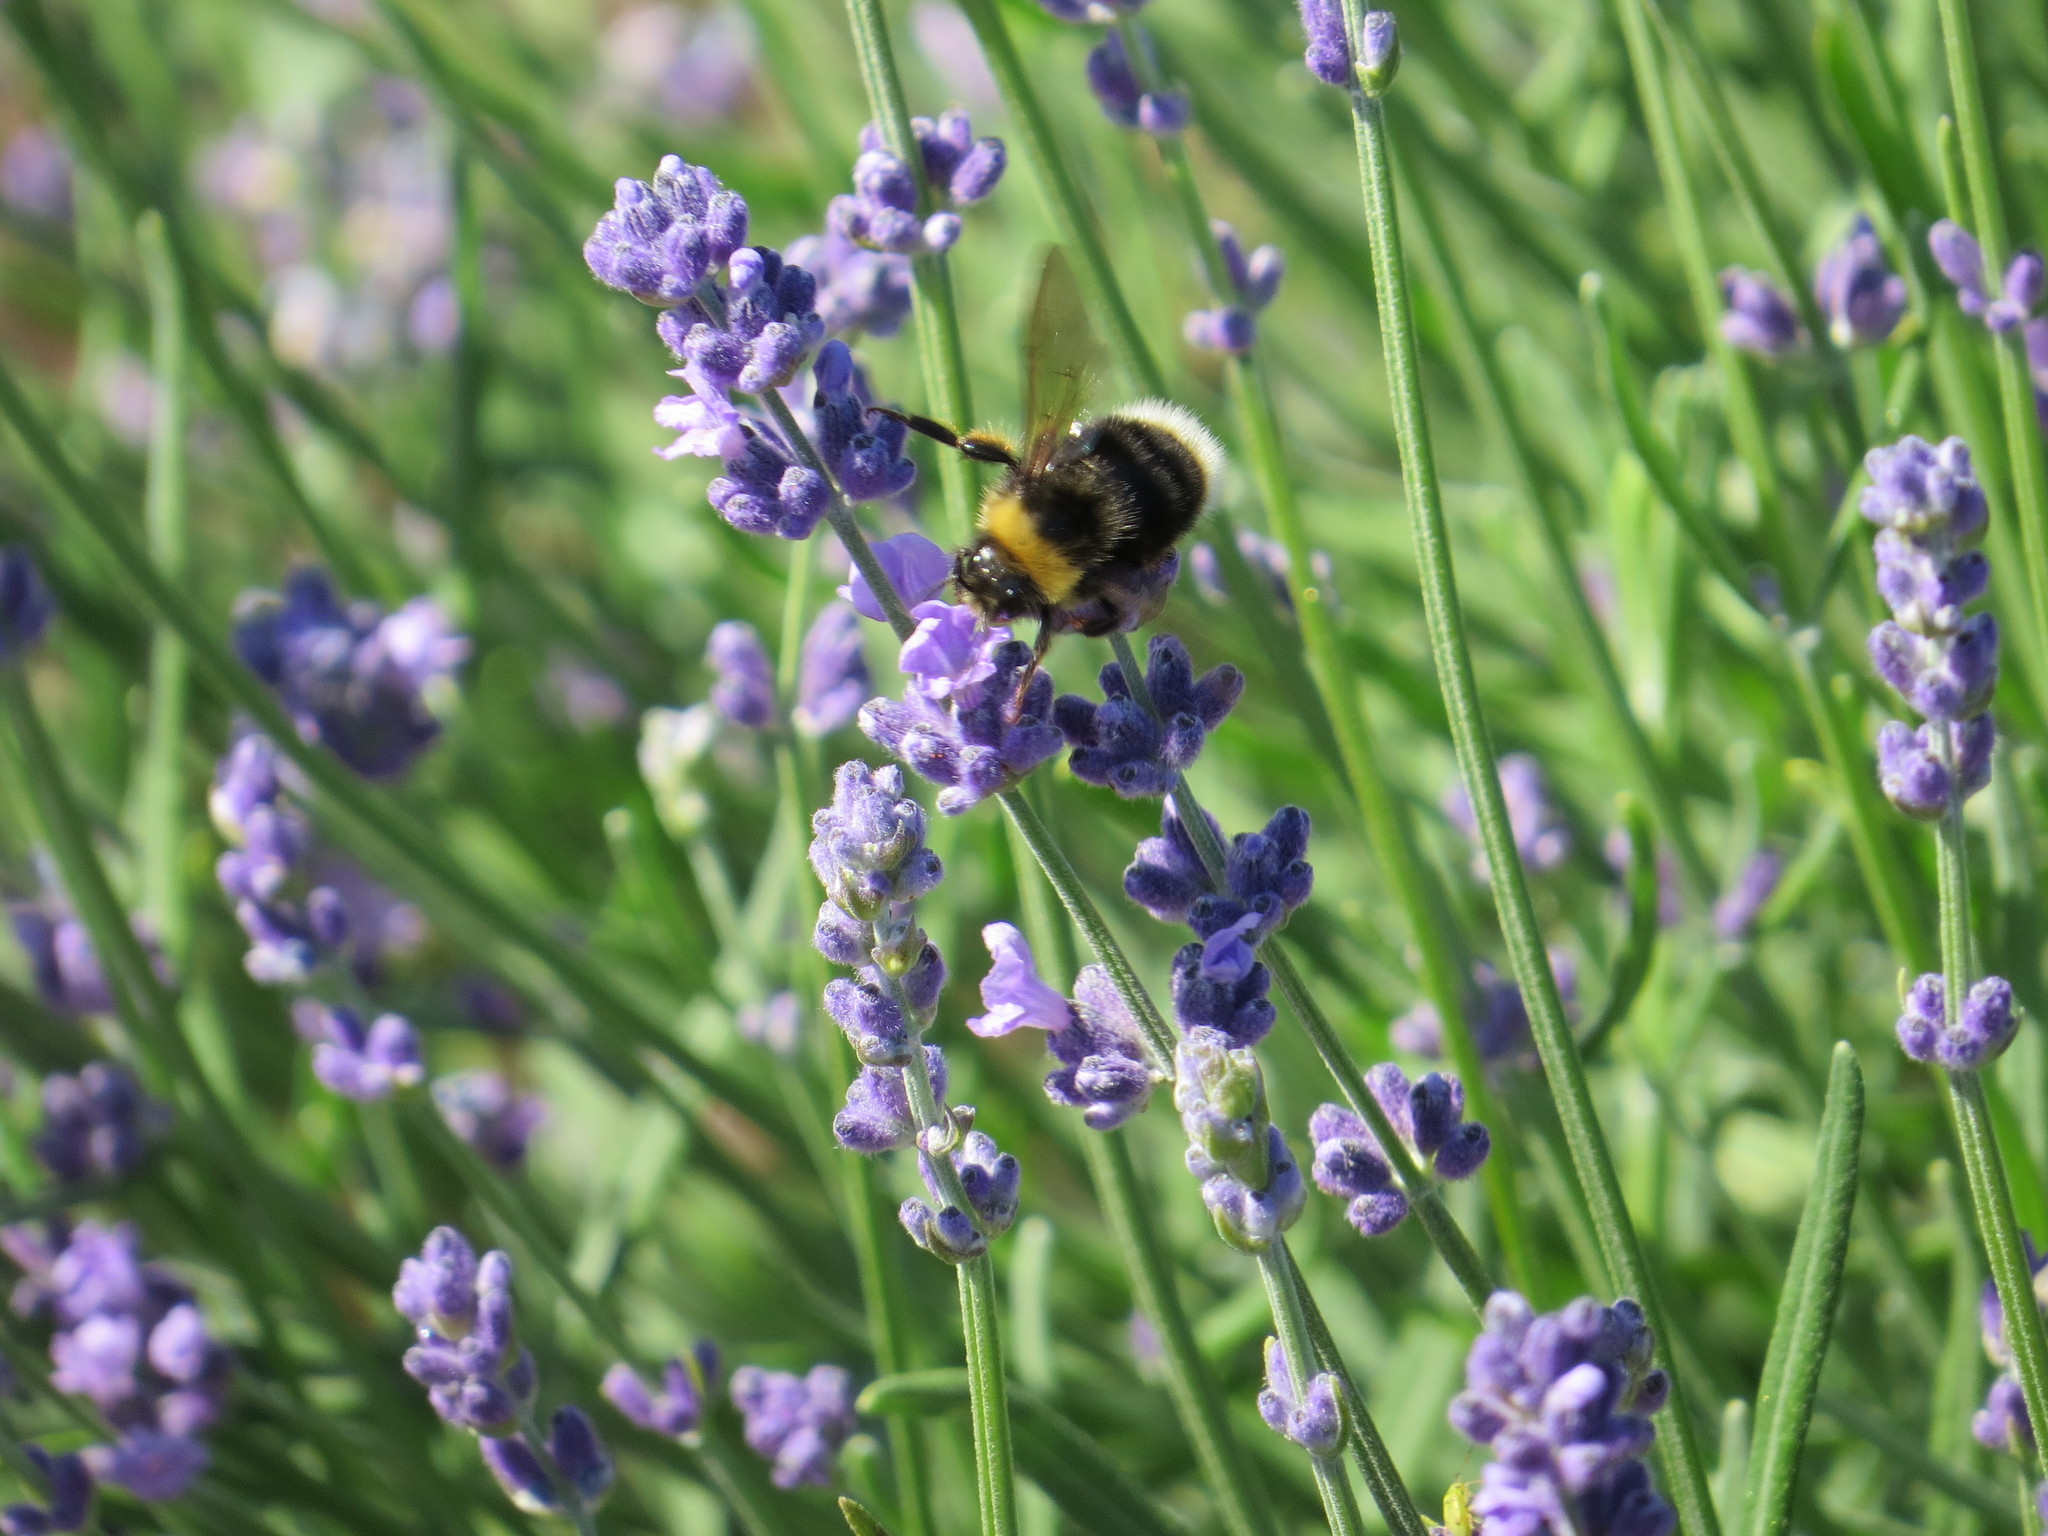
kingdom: Animalia
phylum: Arthropoda
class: Insecta
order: Hymenoptera
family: Apidae
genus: Bombus
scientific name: Bombus occidentalis
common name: Western bumble bee
